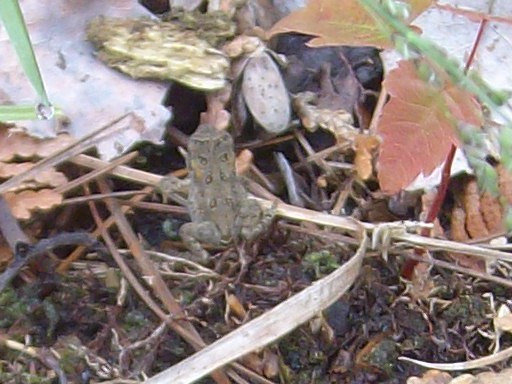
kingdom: Animalia
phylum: Chordata
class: Amphibia
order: Anura
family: Bufonidae
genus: Anaxyrus
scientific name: Anaxyrus americanus
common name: American toad
